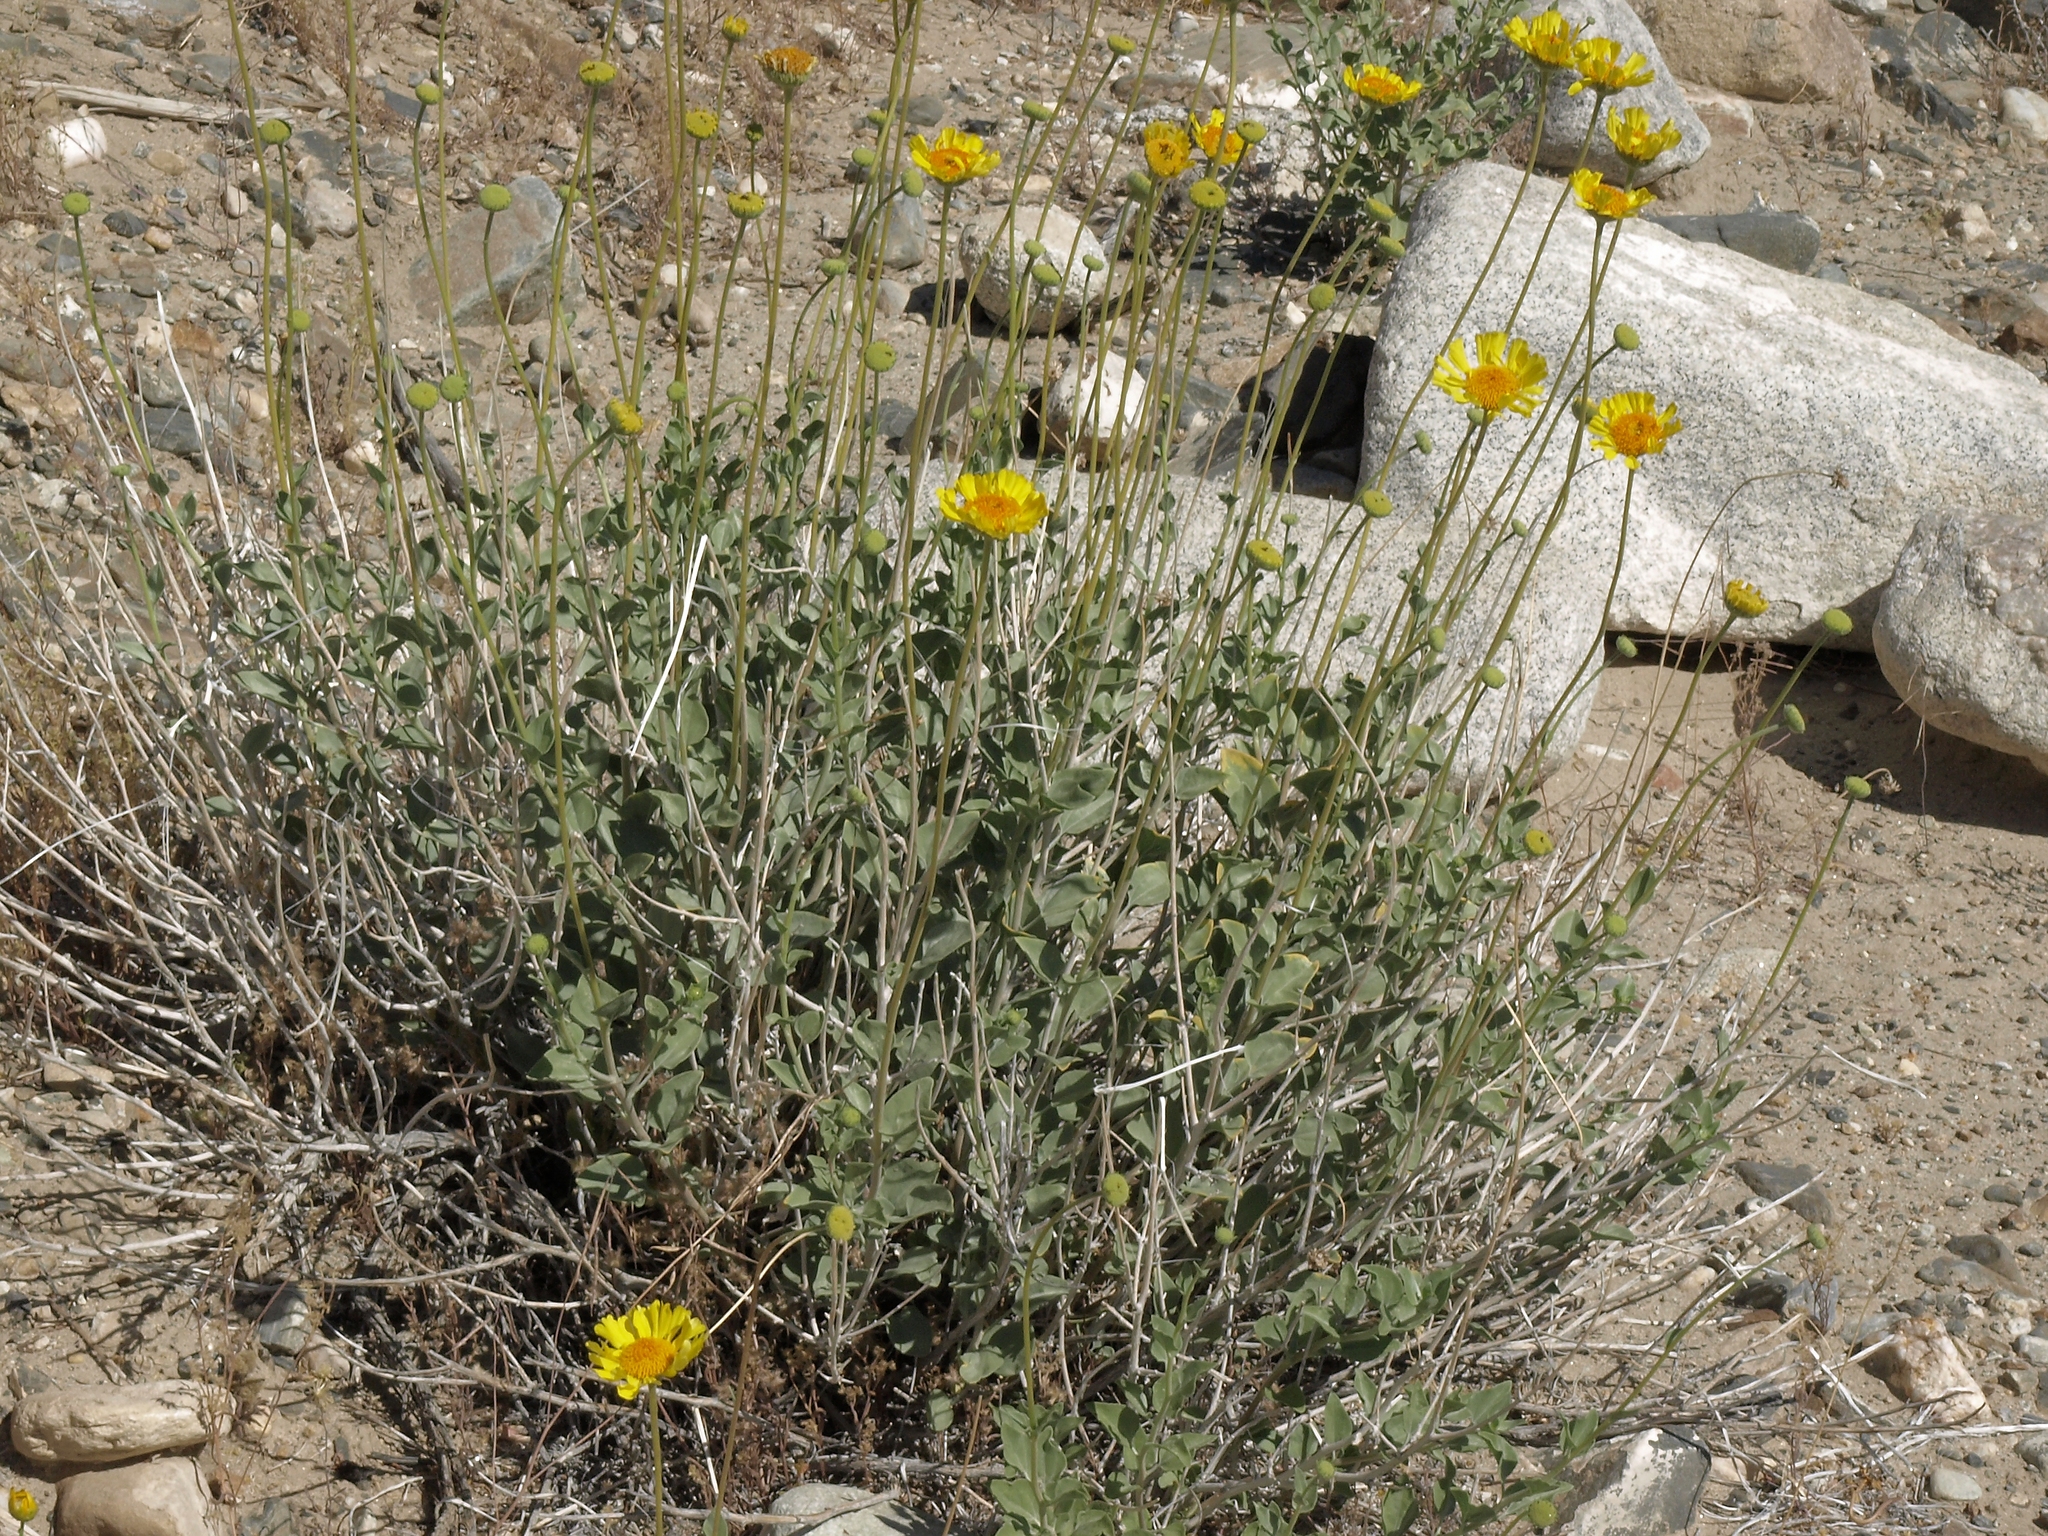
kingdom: Plantae
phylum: Tracheophyta
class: Magnoliopsida
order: Asterales
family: Asteraceae
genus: Encelia
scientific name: Encelia actoni
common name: Acton encelia
